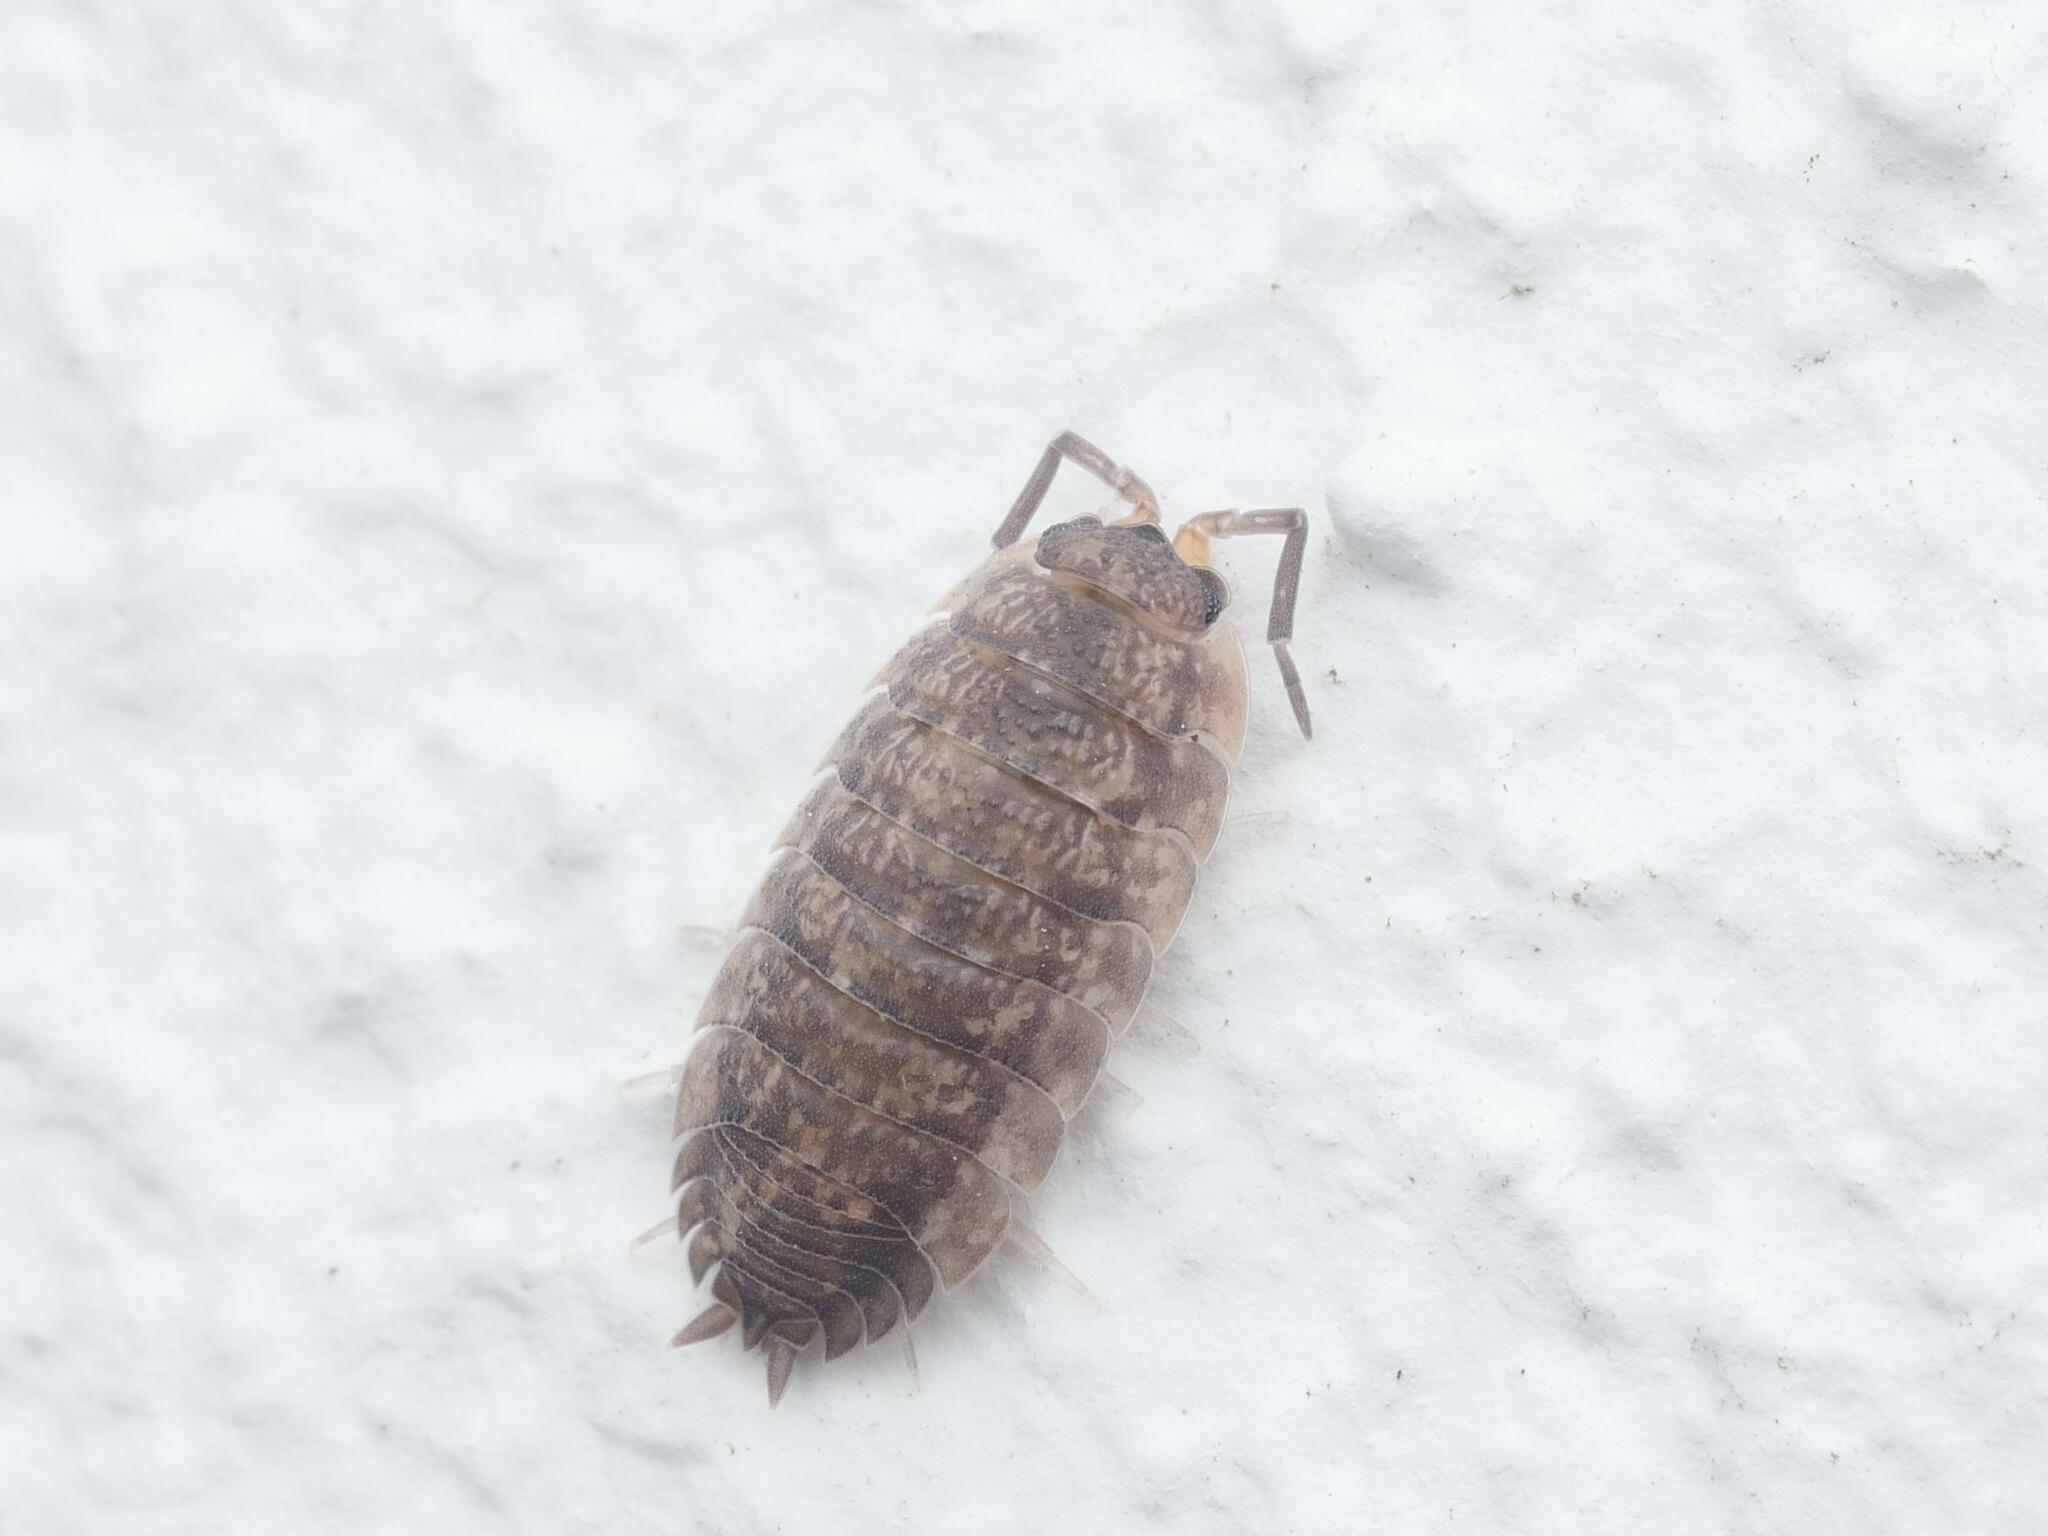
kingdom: Animalia
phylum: Arthropoda
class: Malacostraca
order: Isopoda
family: Porcellionidae
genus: Porcellio
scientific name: Porcellio scaber
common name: Common rough woodlouse
